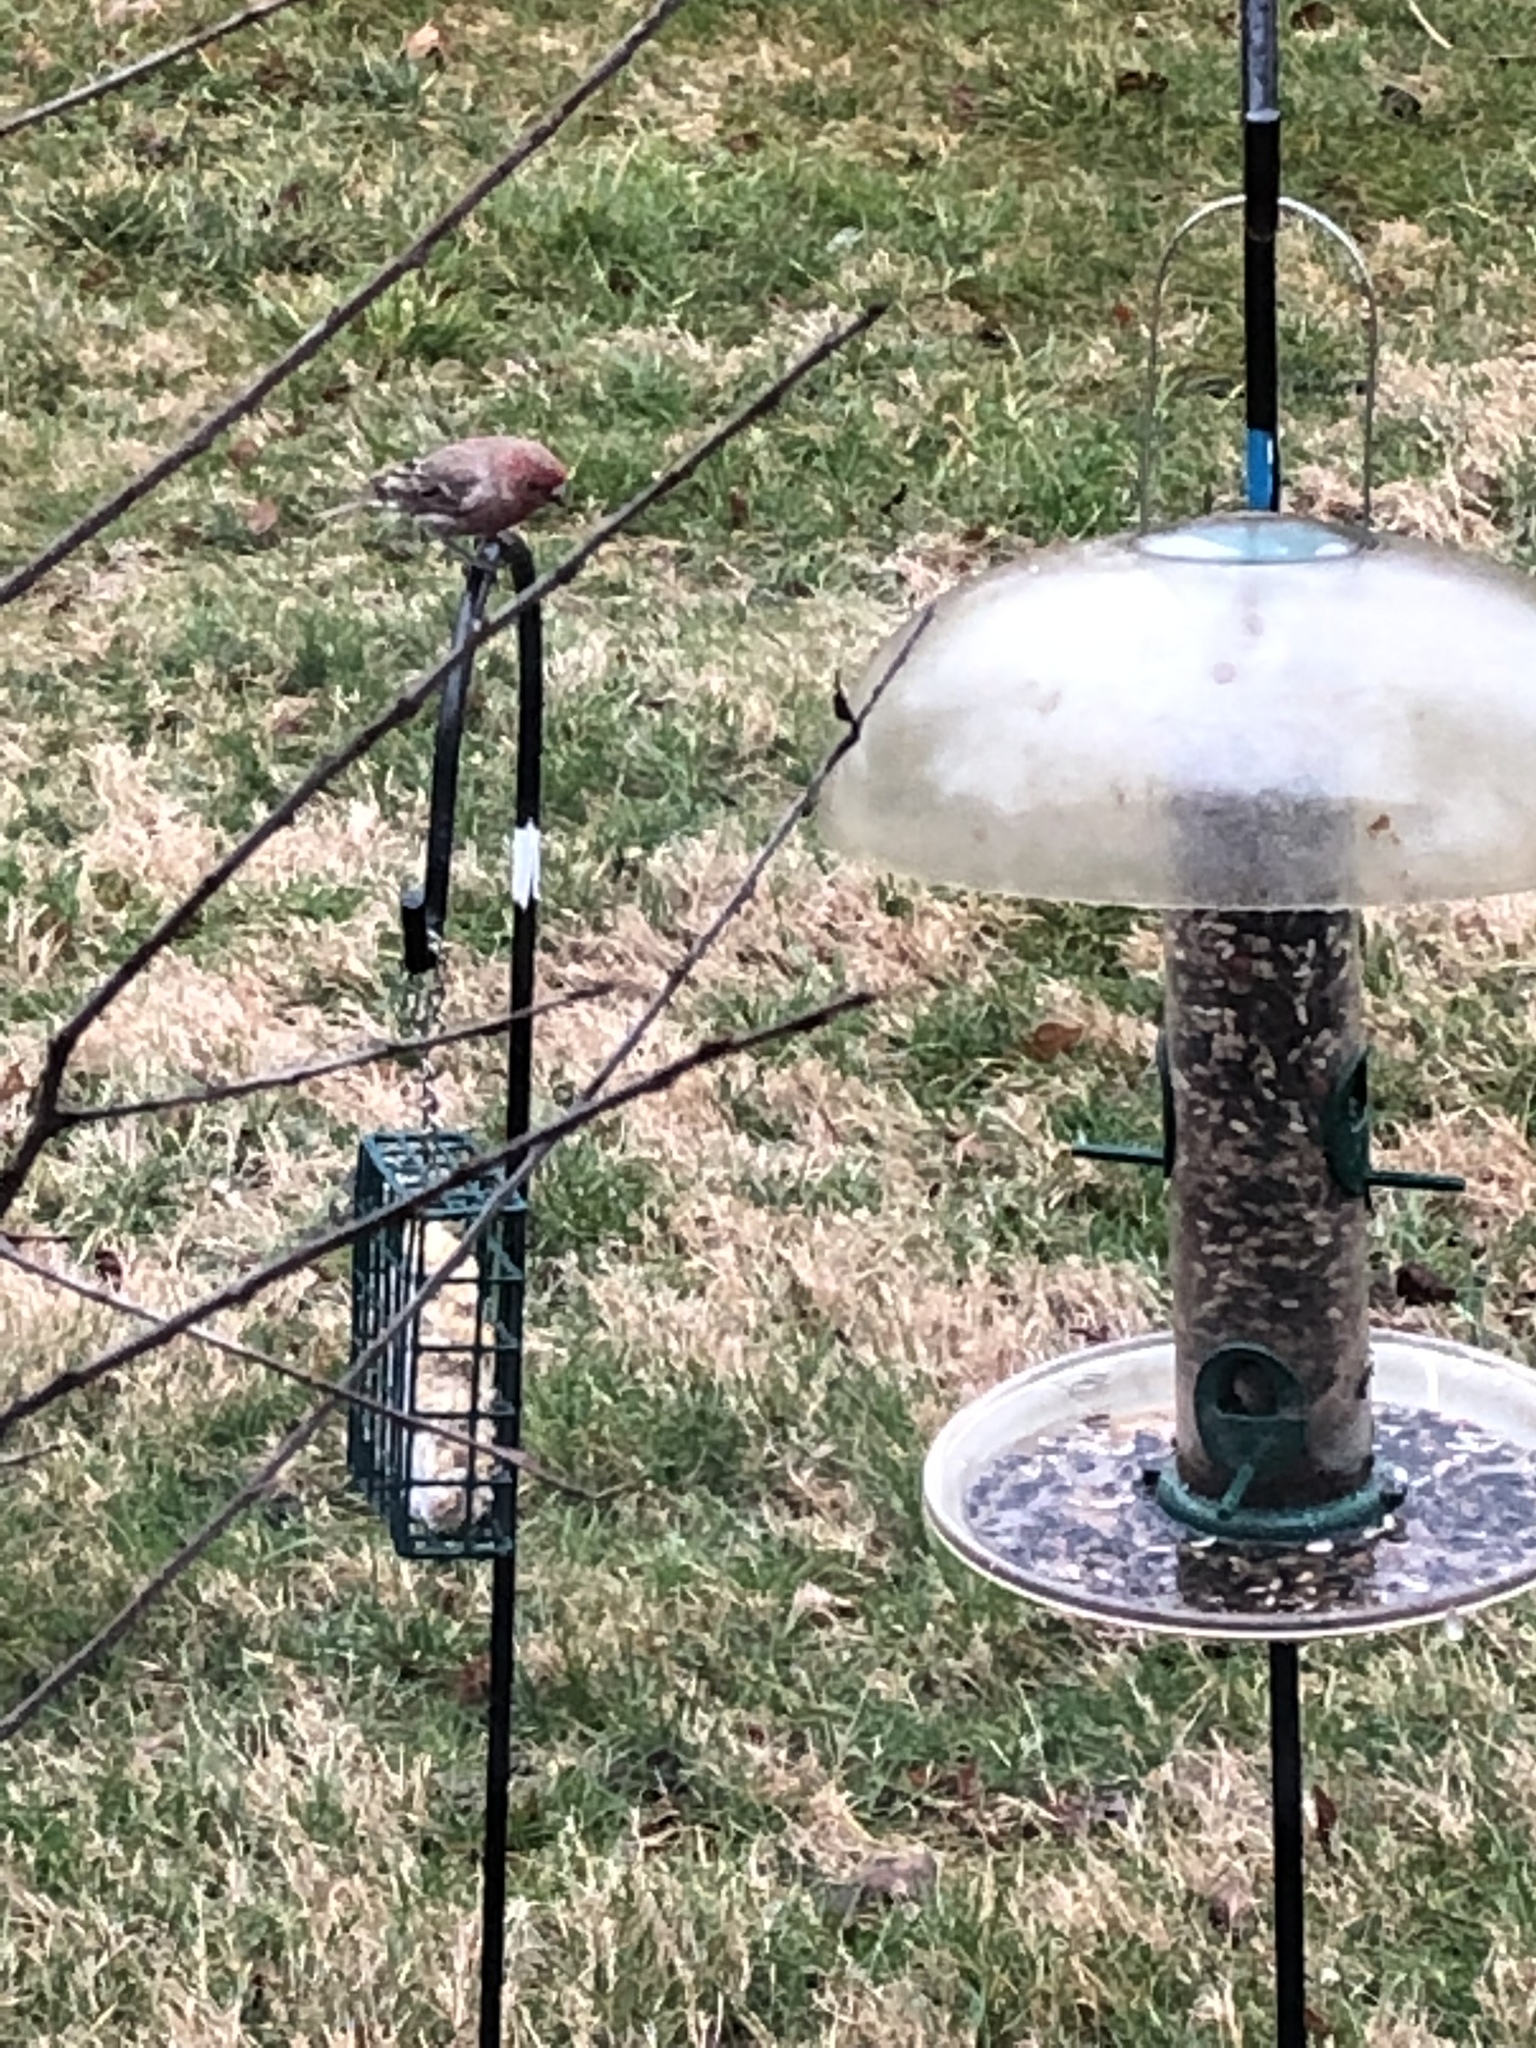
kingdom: Animalia
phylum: Chordata
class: Aves
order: Passeriformes
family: Fringillidae
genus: Haemorhous
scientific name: Haemorhous mexicanus
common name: House finch
